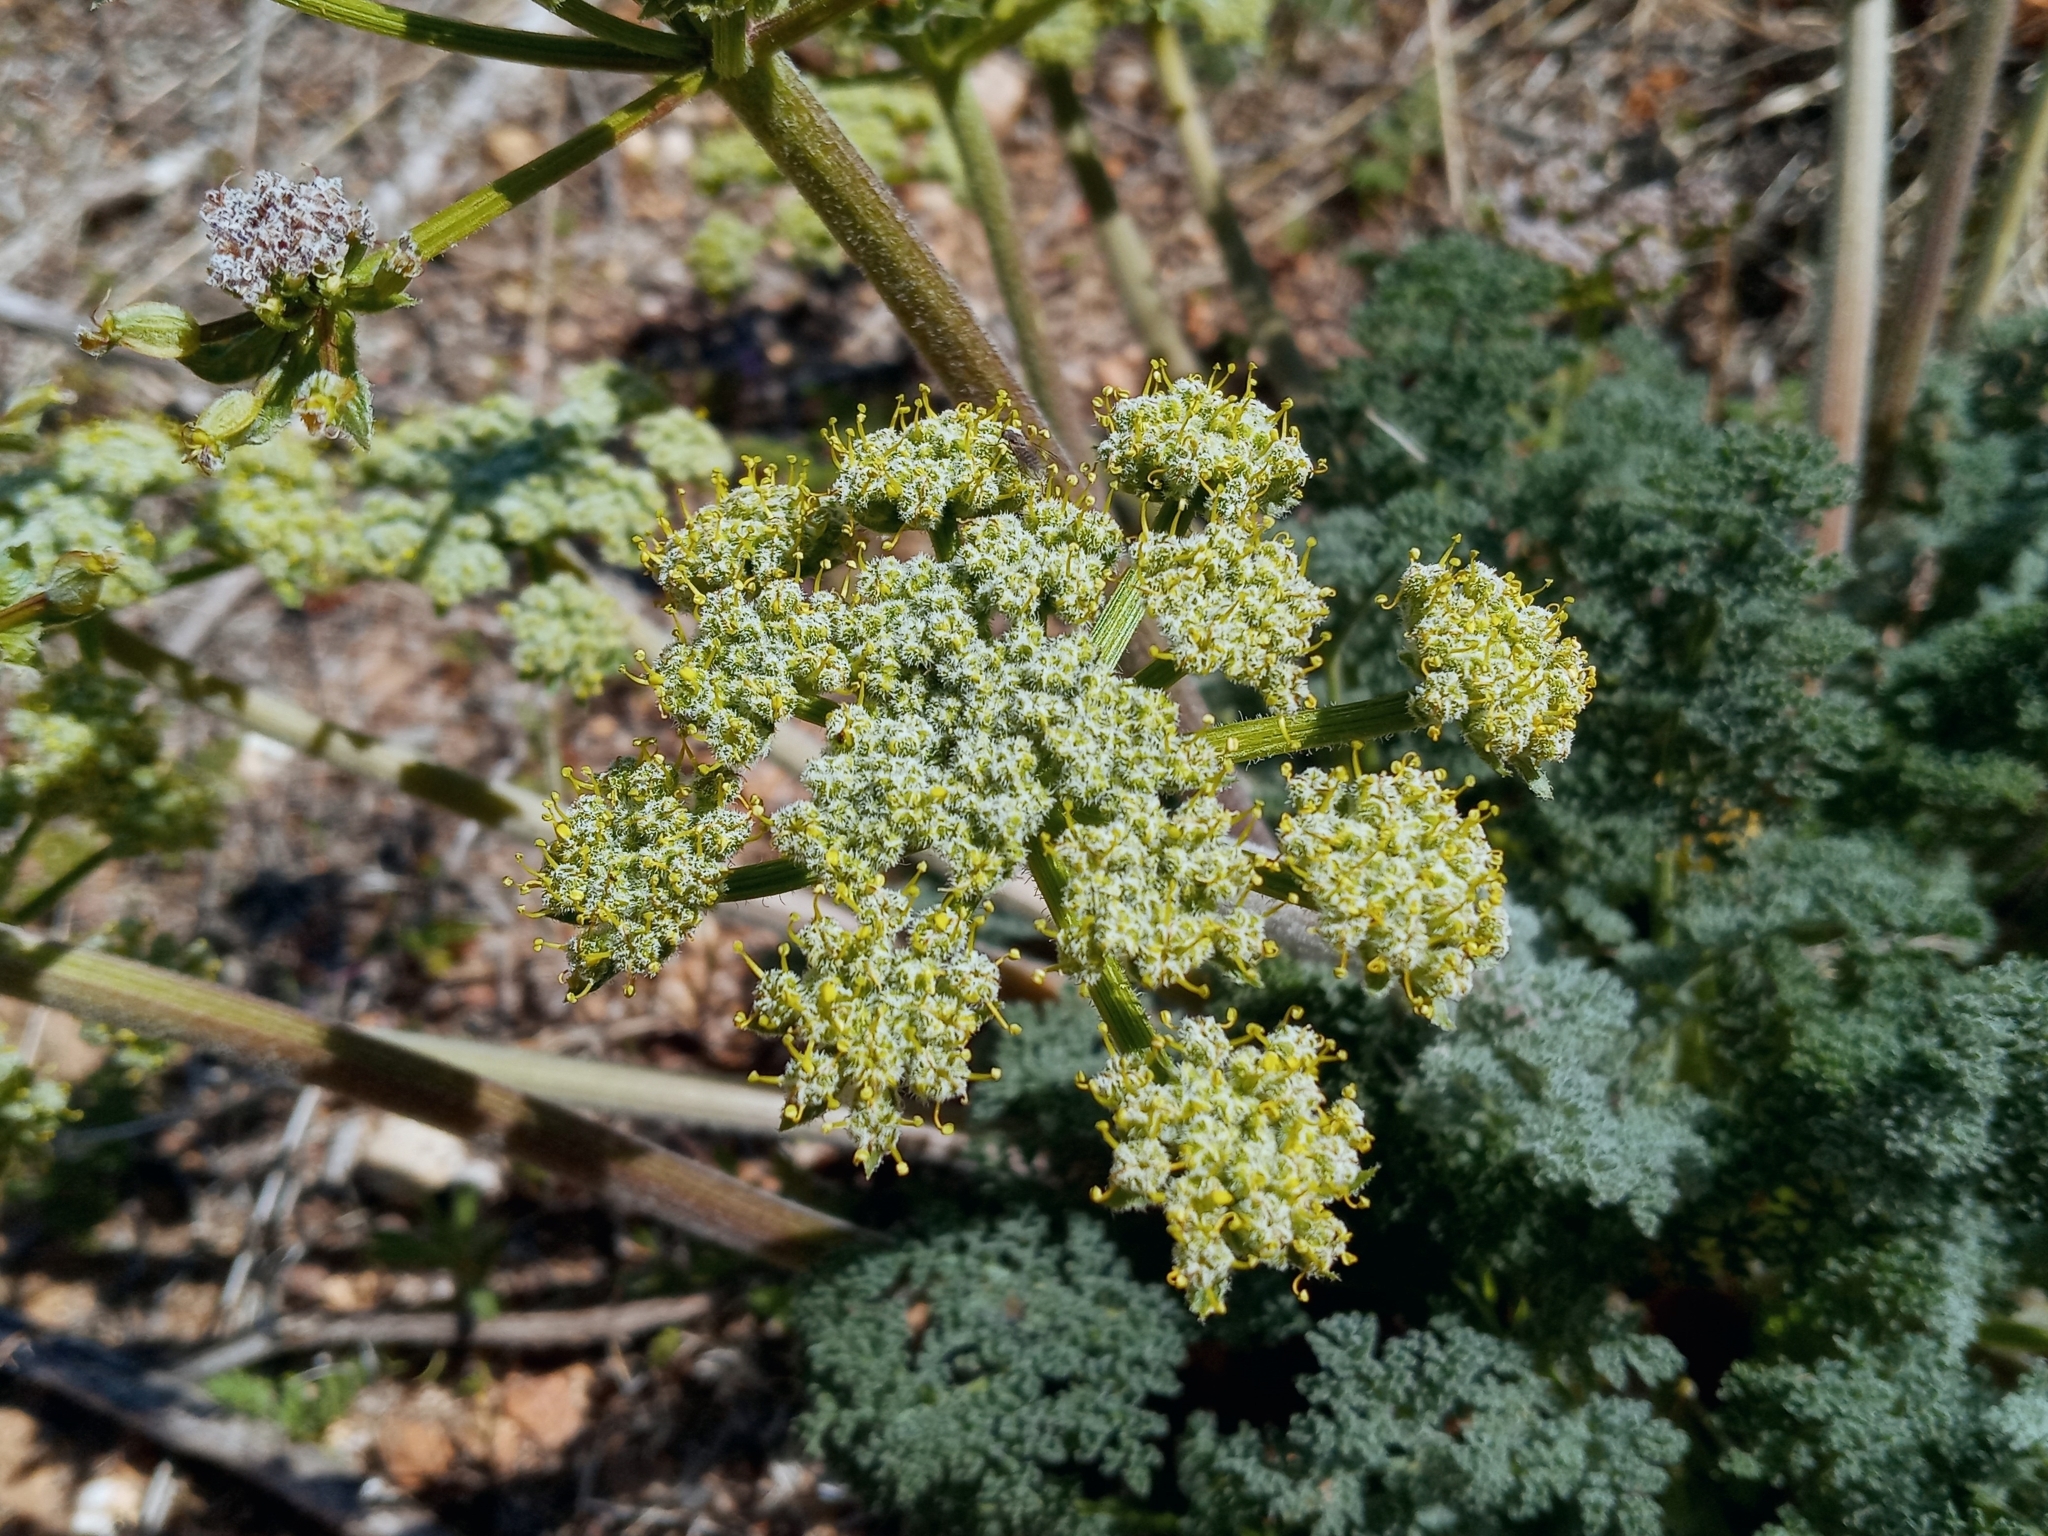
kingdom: Plantae
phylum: Tracheophyta
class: Magnoliopsida
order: Apiales
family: Apiaceae
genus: Lomatium
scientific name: Lomatium dasycarpum
